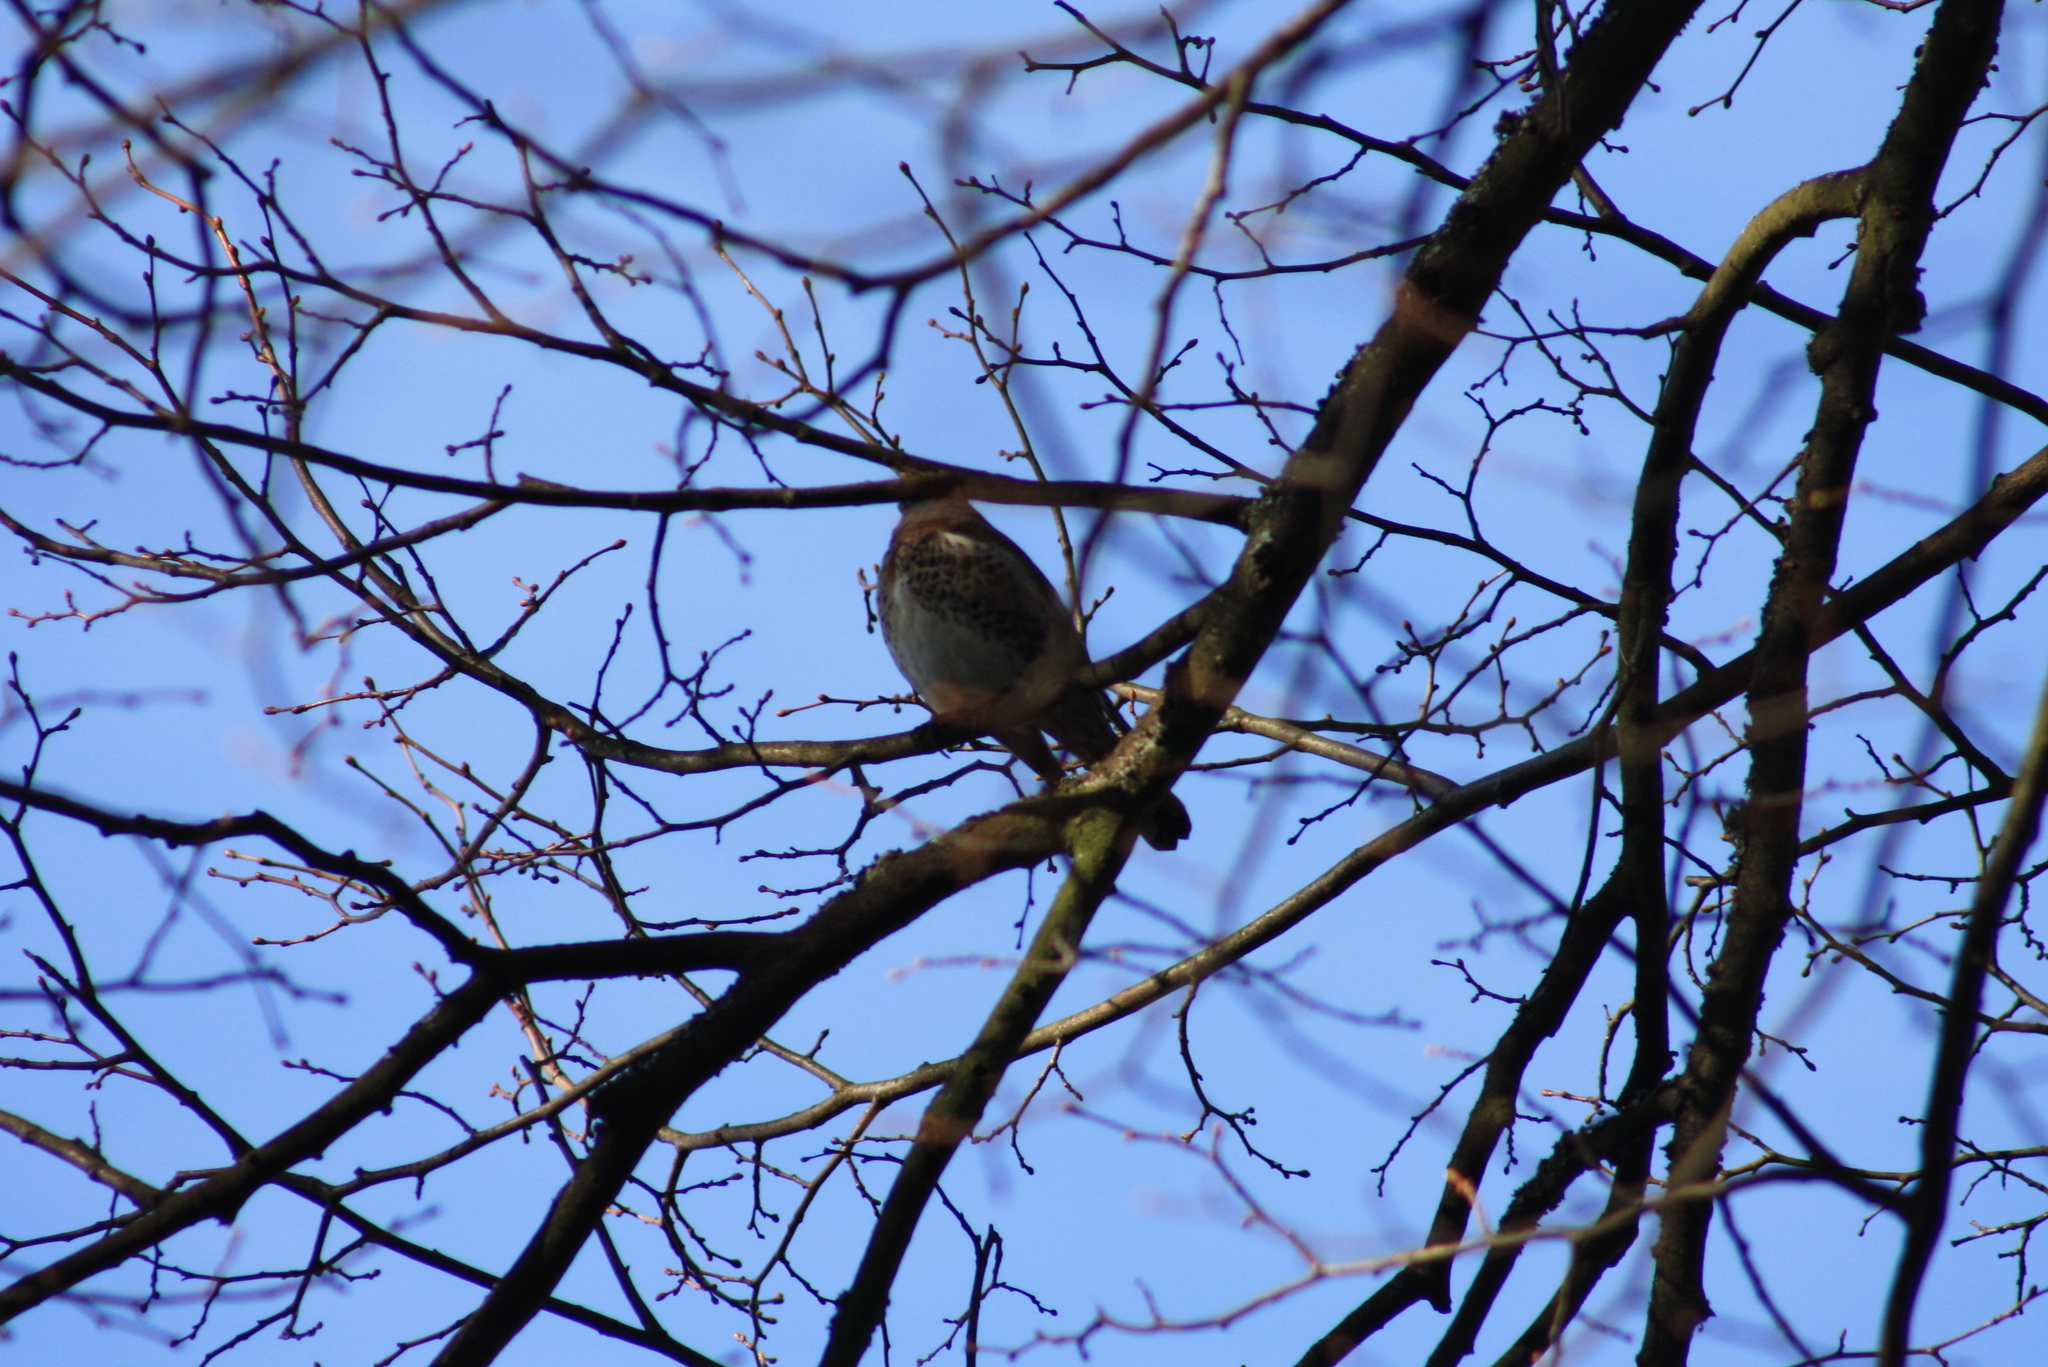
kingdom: Animalia
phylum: Chordata
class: Aves
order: Passeriformes
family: Turdidae
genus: Turdus
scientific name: Turdus pilaris
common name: Fieldfare
